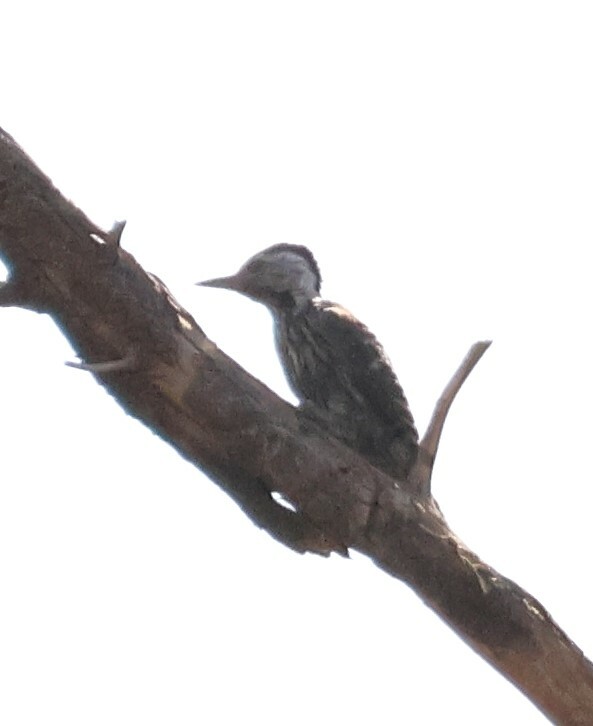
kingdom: Animalia
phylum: Chordata
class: Aves
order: Piciformes
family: Picidae
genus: Dendropicos
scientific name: Dendropicos fuscescens
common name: Cardinal woodpecker
